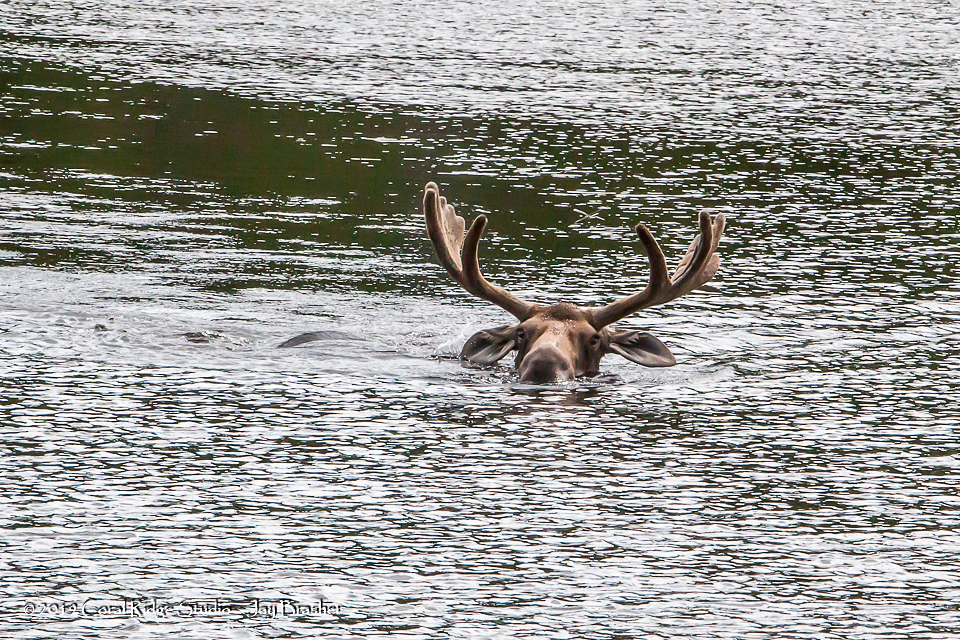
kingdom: Animalia
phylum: Chordata
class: Mammalia
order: Artiodactyla
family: Cervidae
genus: Alces
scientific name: Alces alces
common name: Moose
